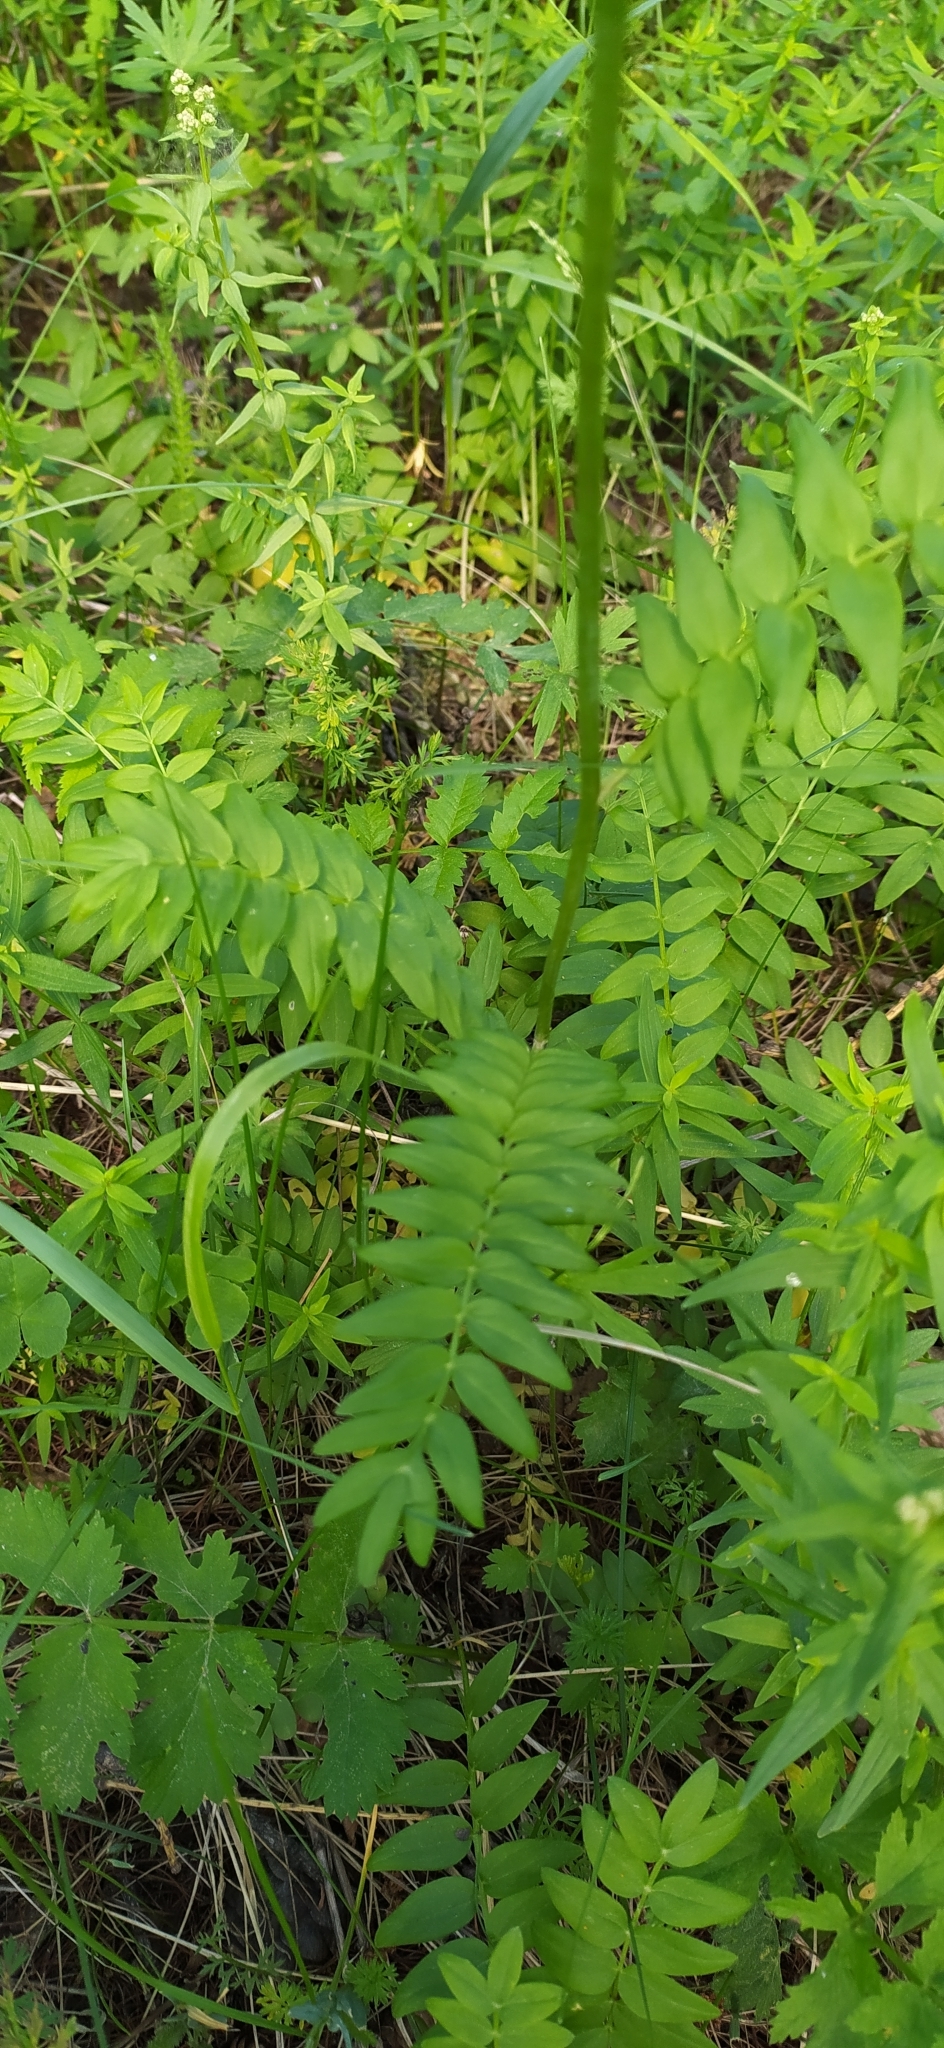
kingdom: Plantae
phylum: Tracheophyta
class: Magnoliopsida
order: Ericales
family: Polemoniaceae
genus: Polemonium
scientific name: Polemonium caeruleum
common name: Jacob's-ladder
